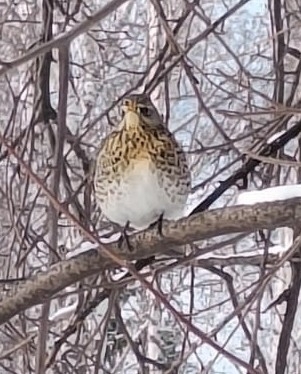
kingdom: Animalia
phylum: Chordata
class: Aves
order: Passeriformes
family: Turdidae
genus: Turdus
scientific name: Turdus pilaris
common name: Fieldfare
